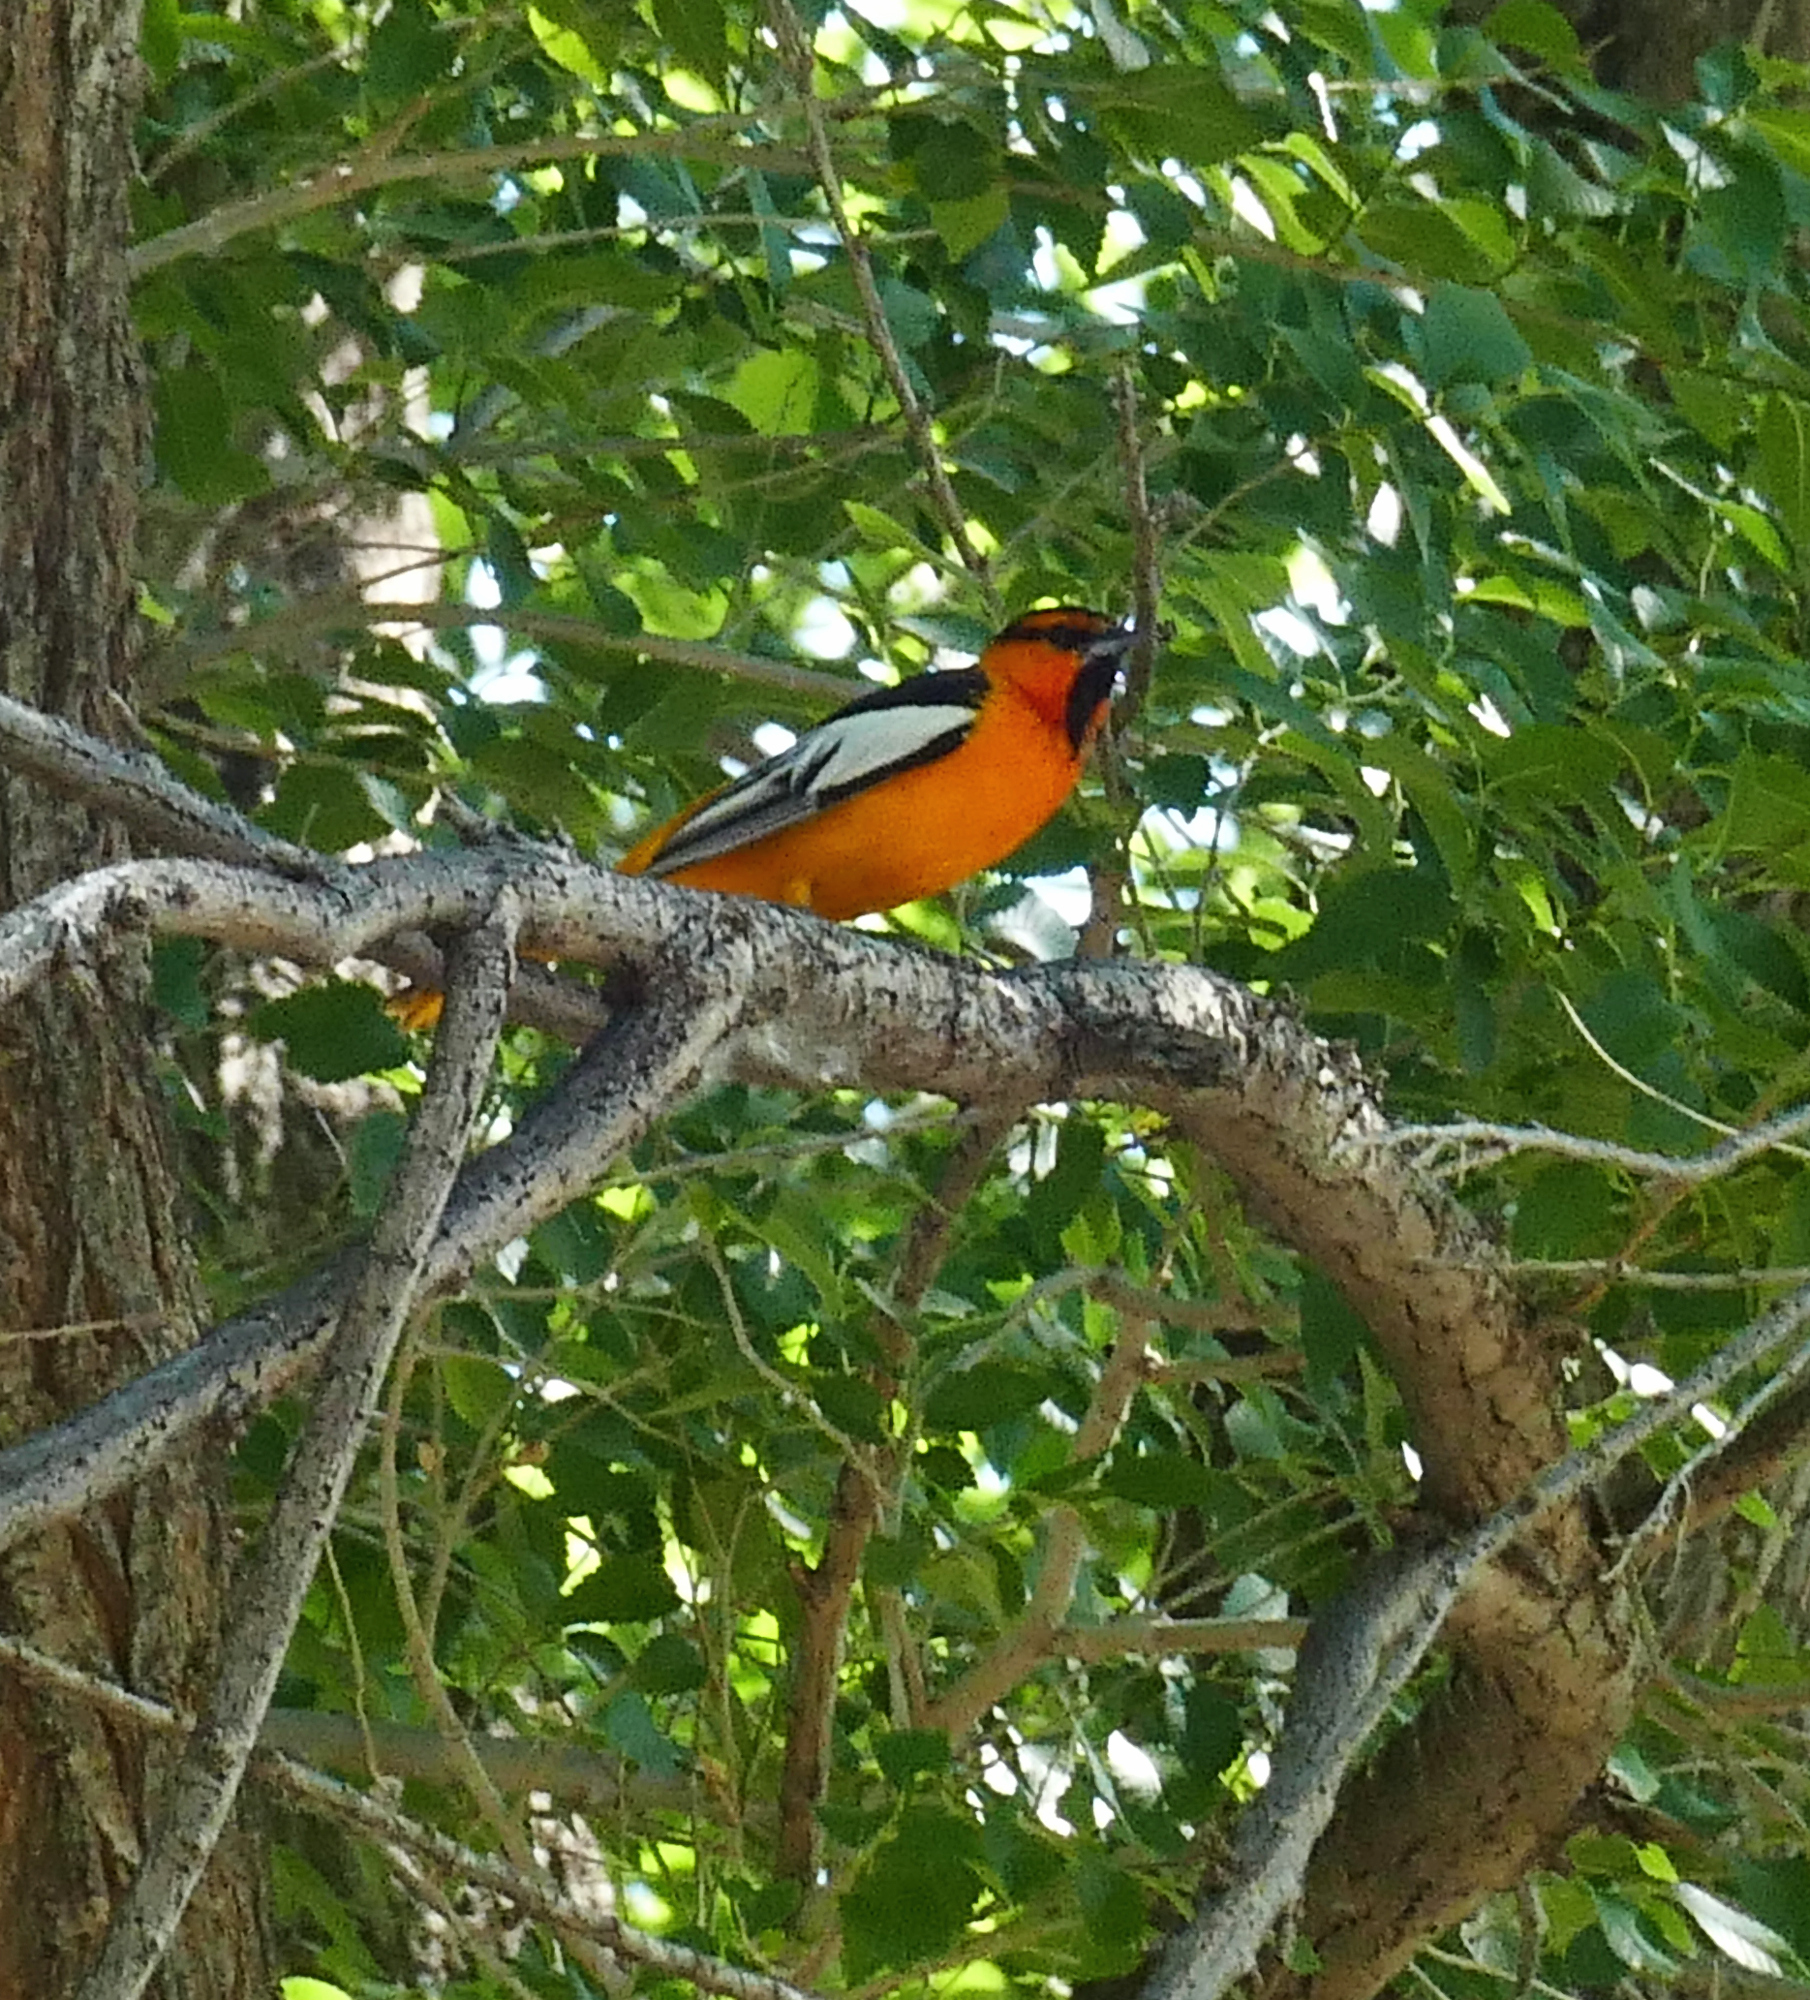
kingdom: Animalia
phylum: Chordata
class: Aves
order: Passeriformes
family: Icteridae
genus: Icterus
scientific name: Icterus bullockii
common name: Bullock's oriole
